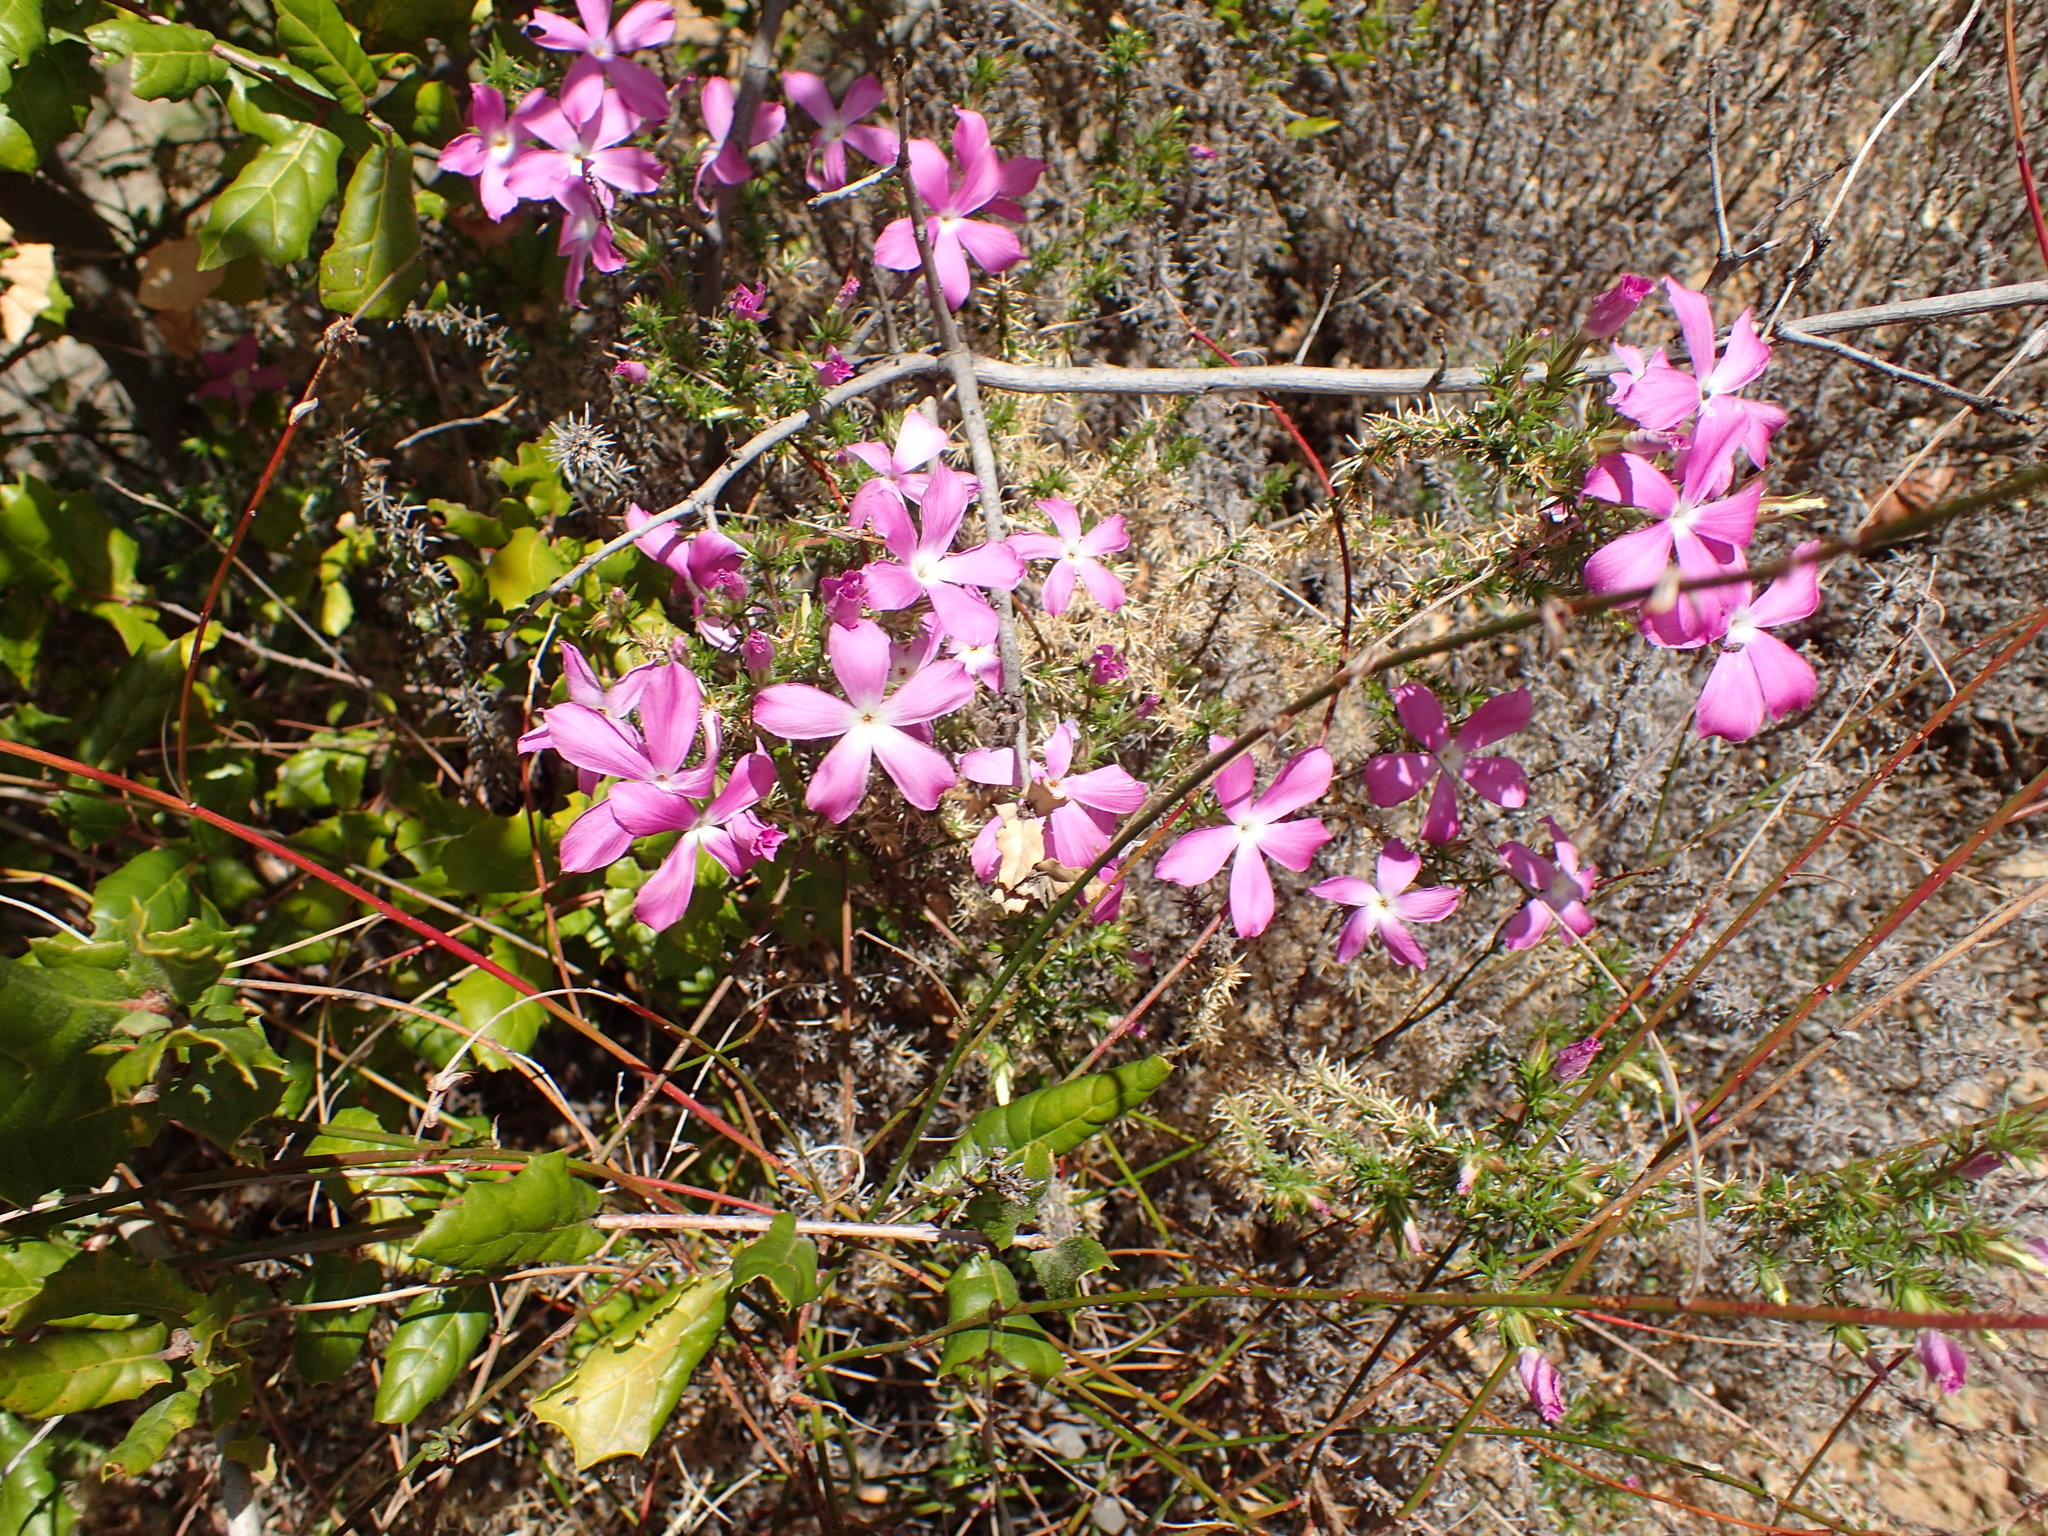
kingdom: Plantae
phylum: Tracheophyta
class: Magnoliopsida
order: Ericales
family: Polemoniaceae
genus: Linanthus
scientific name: Linanthus californicus
